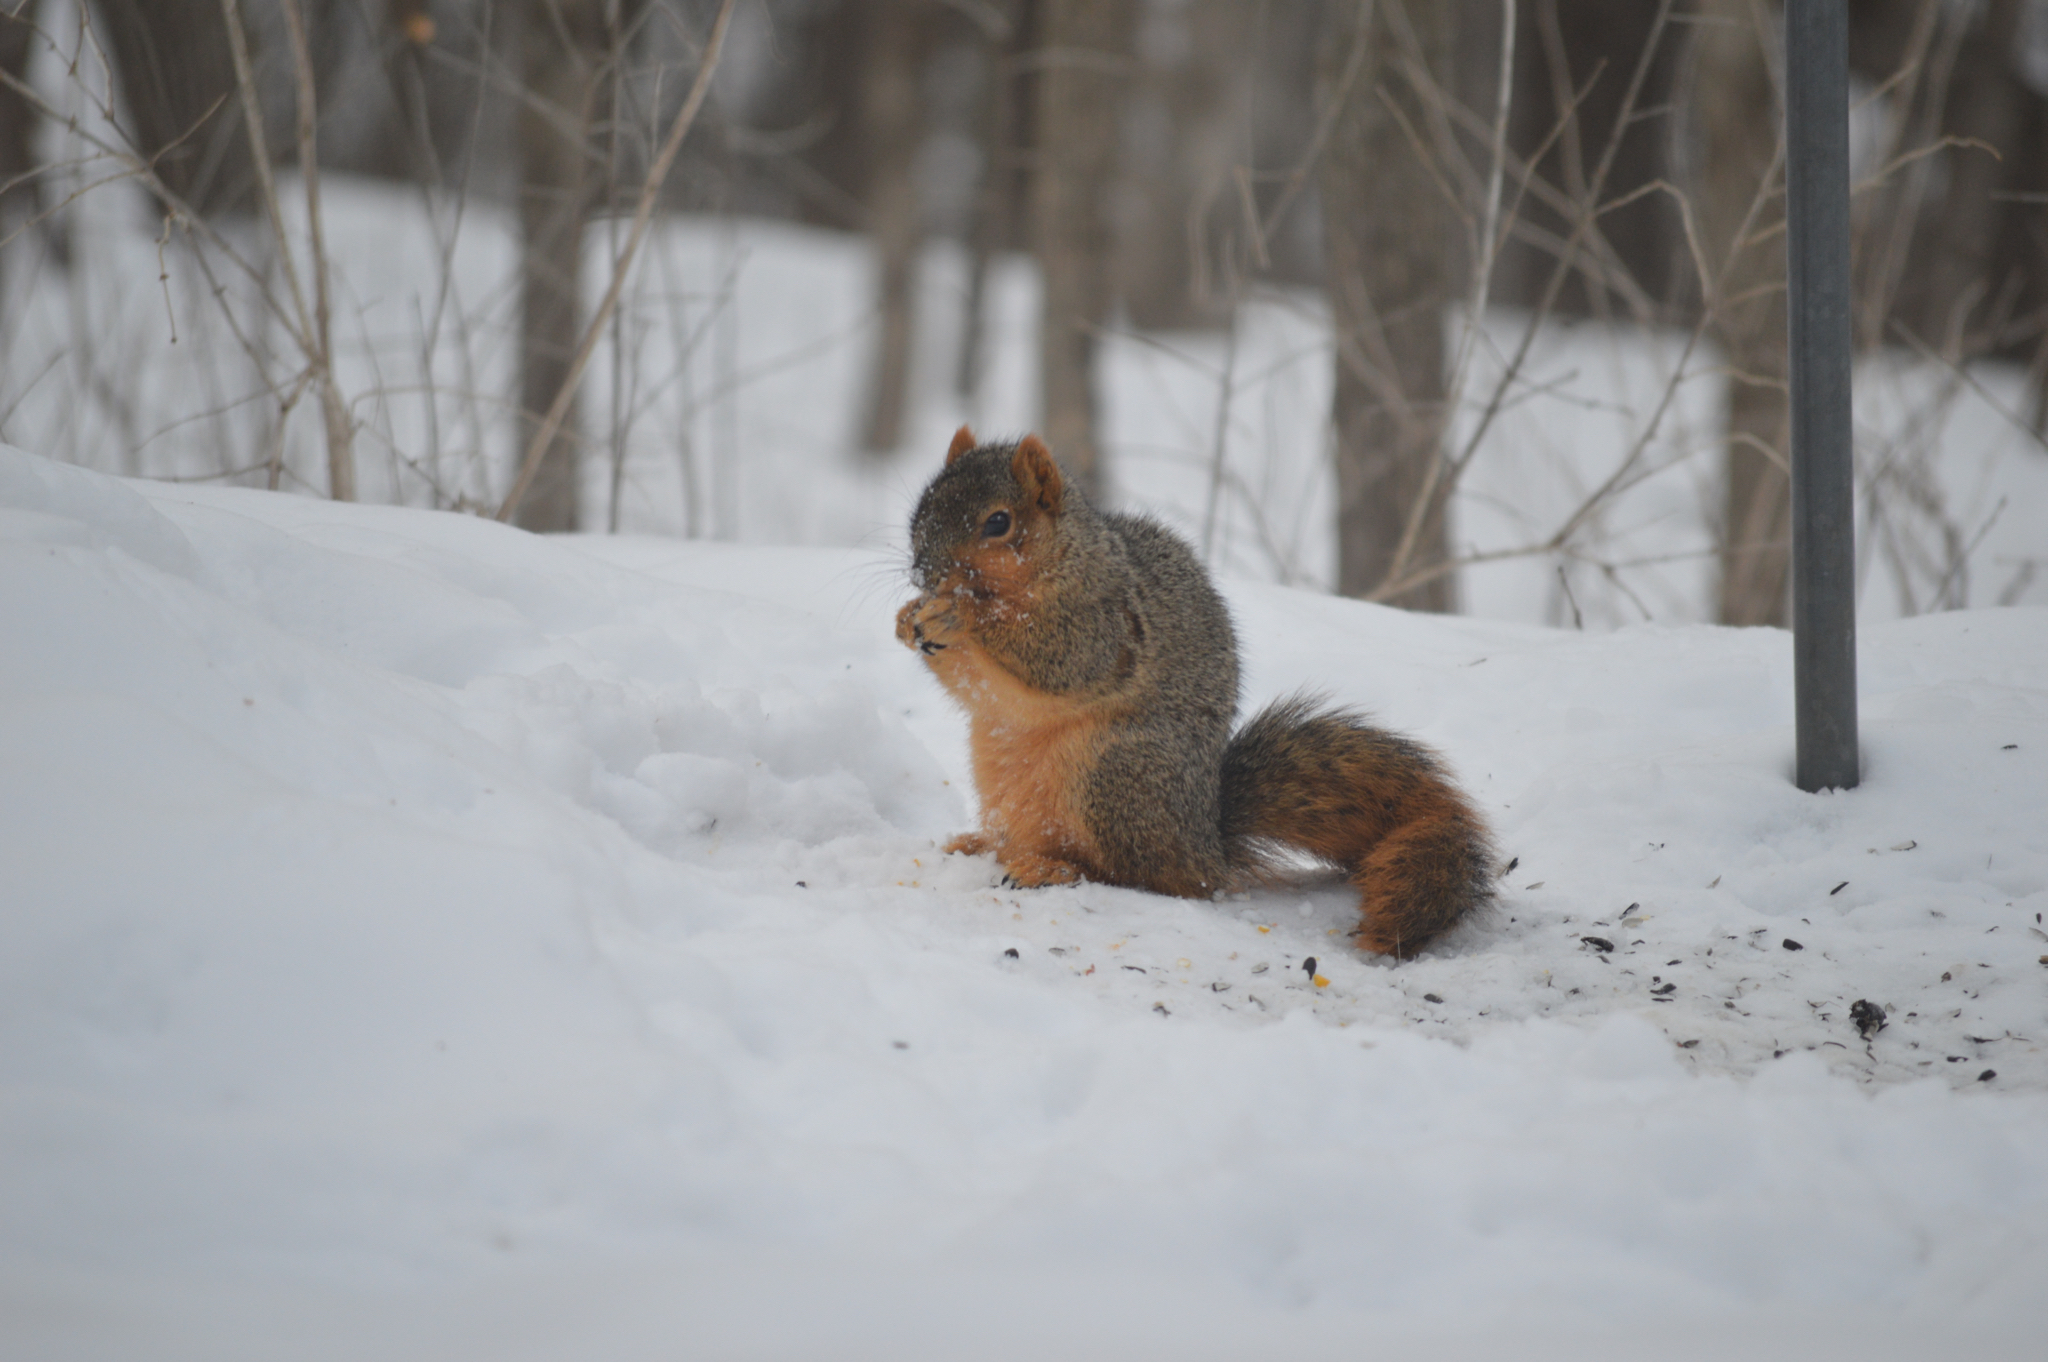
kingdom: Animalia
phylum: Chordata
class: Mammalia
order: Rodentia
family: Sciuridae
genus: Sciurus
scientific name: Sciurus niger
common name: Fox squirrel
